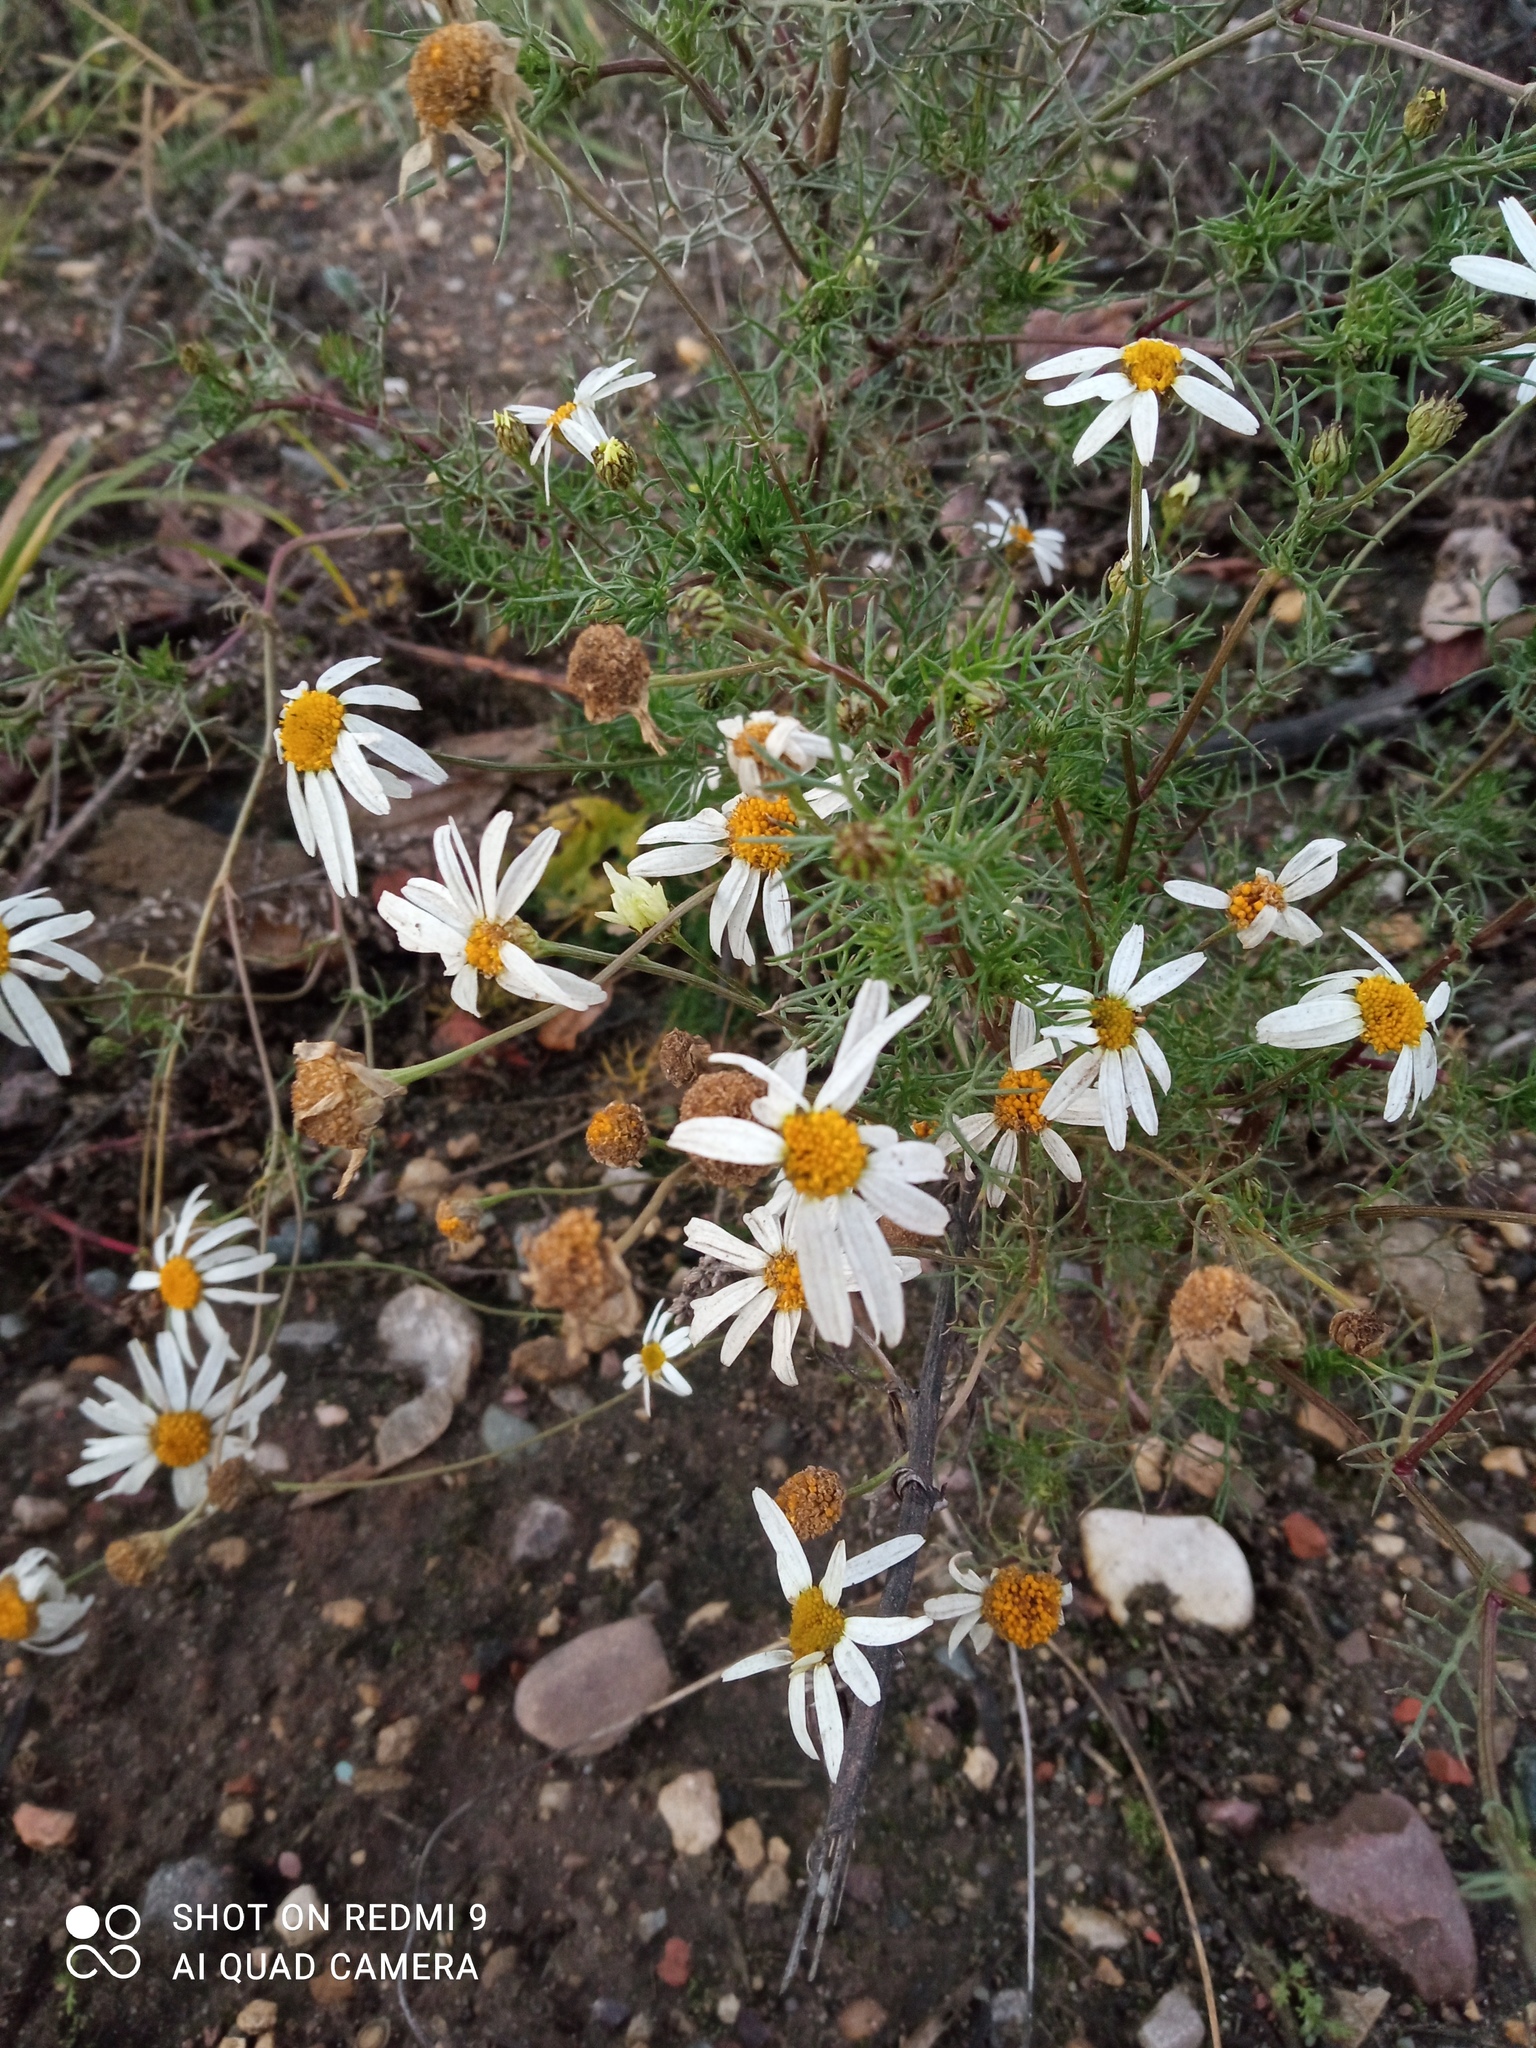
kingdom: Plantae
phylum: Tracheophyta
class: Magnoliopsida
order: Asterales
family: Asteraceae
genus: Tripleurospermum
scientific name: Tripleurospermum inodorum
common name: Scentless mayweed
